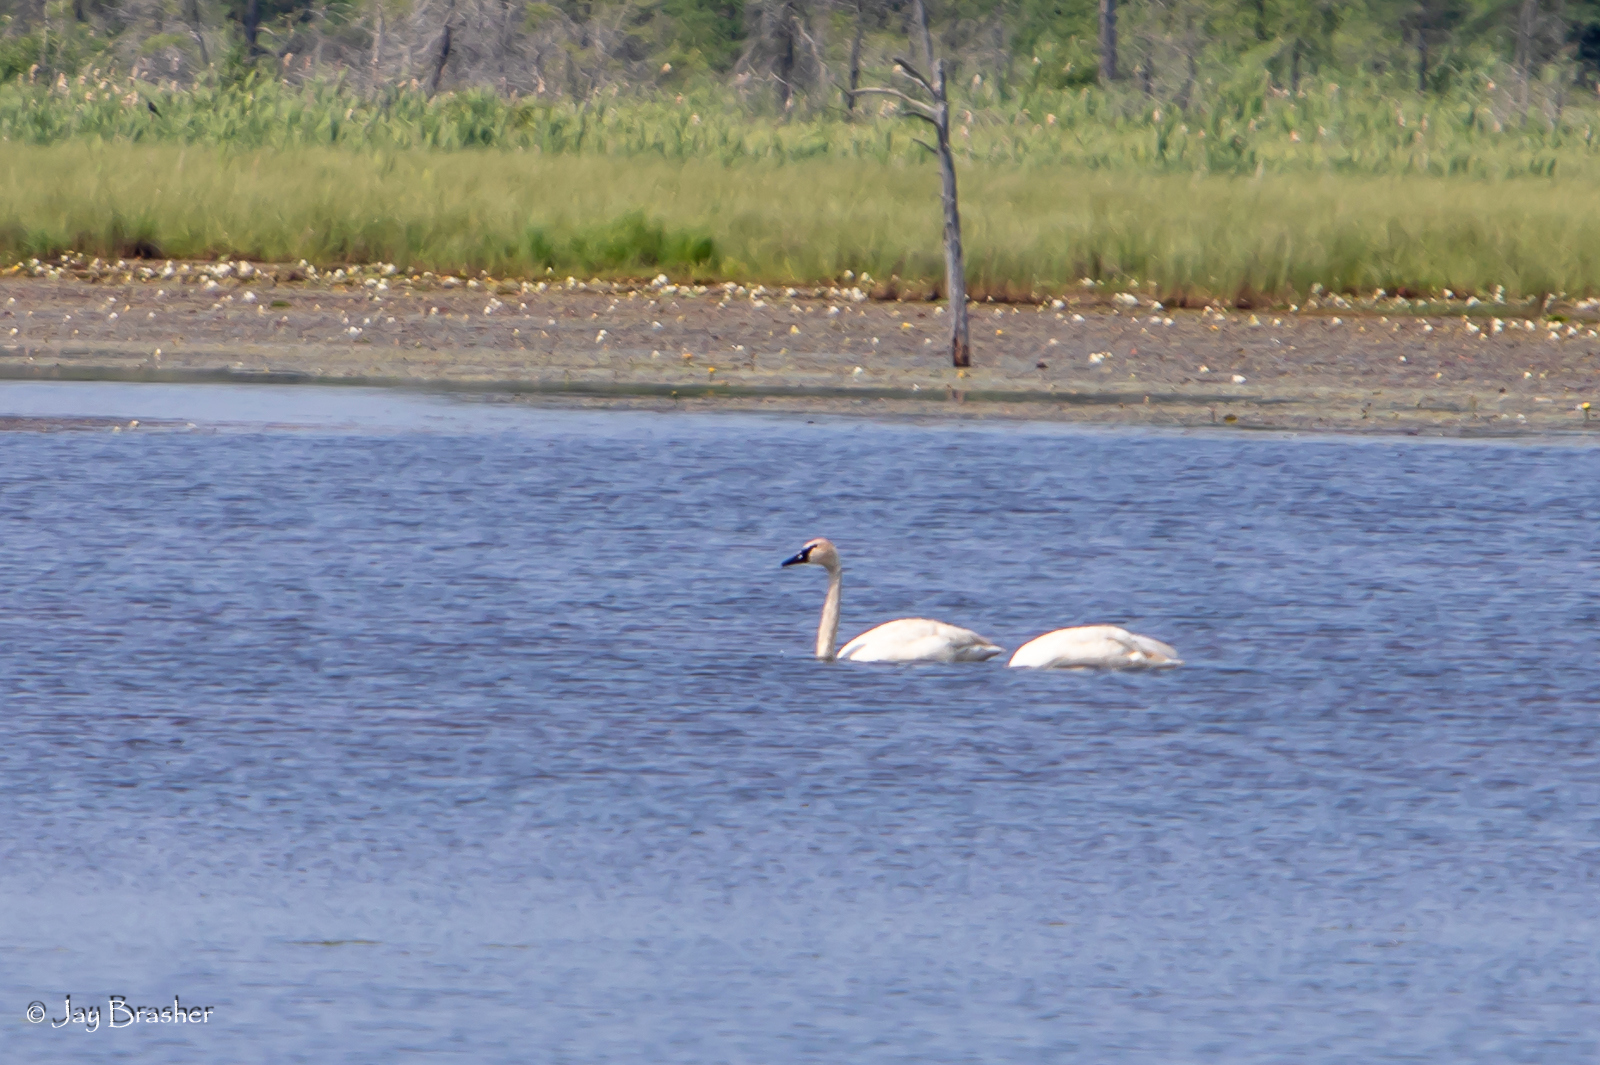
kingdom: Animalia
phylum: Chordata
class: Aves
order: Anseriformes
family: Anatidae
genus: Cygnus
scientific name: Cygnus buccinator
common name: Trumpeter swan
